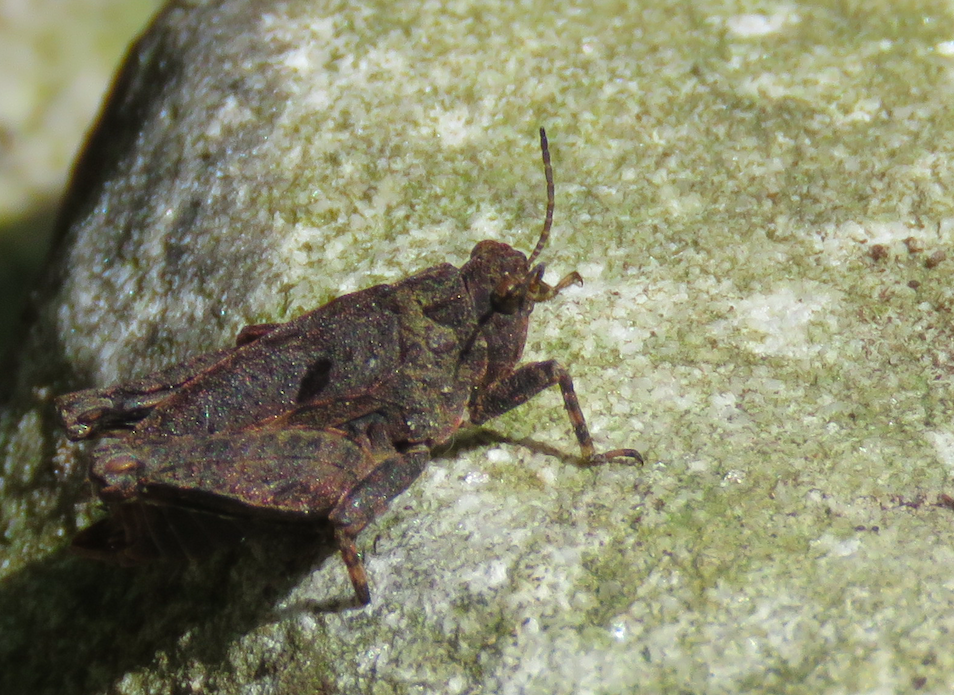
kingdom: Animalia
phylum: Arthropoda
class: Insecta
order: Orthoptera
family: Tetrigidae
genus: Tetrix
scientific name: Tetrix transsylvanica
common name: Transsylvanian wingless groundhopper
